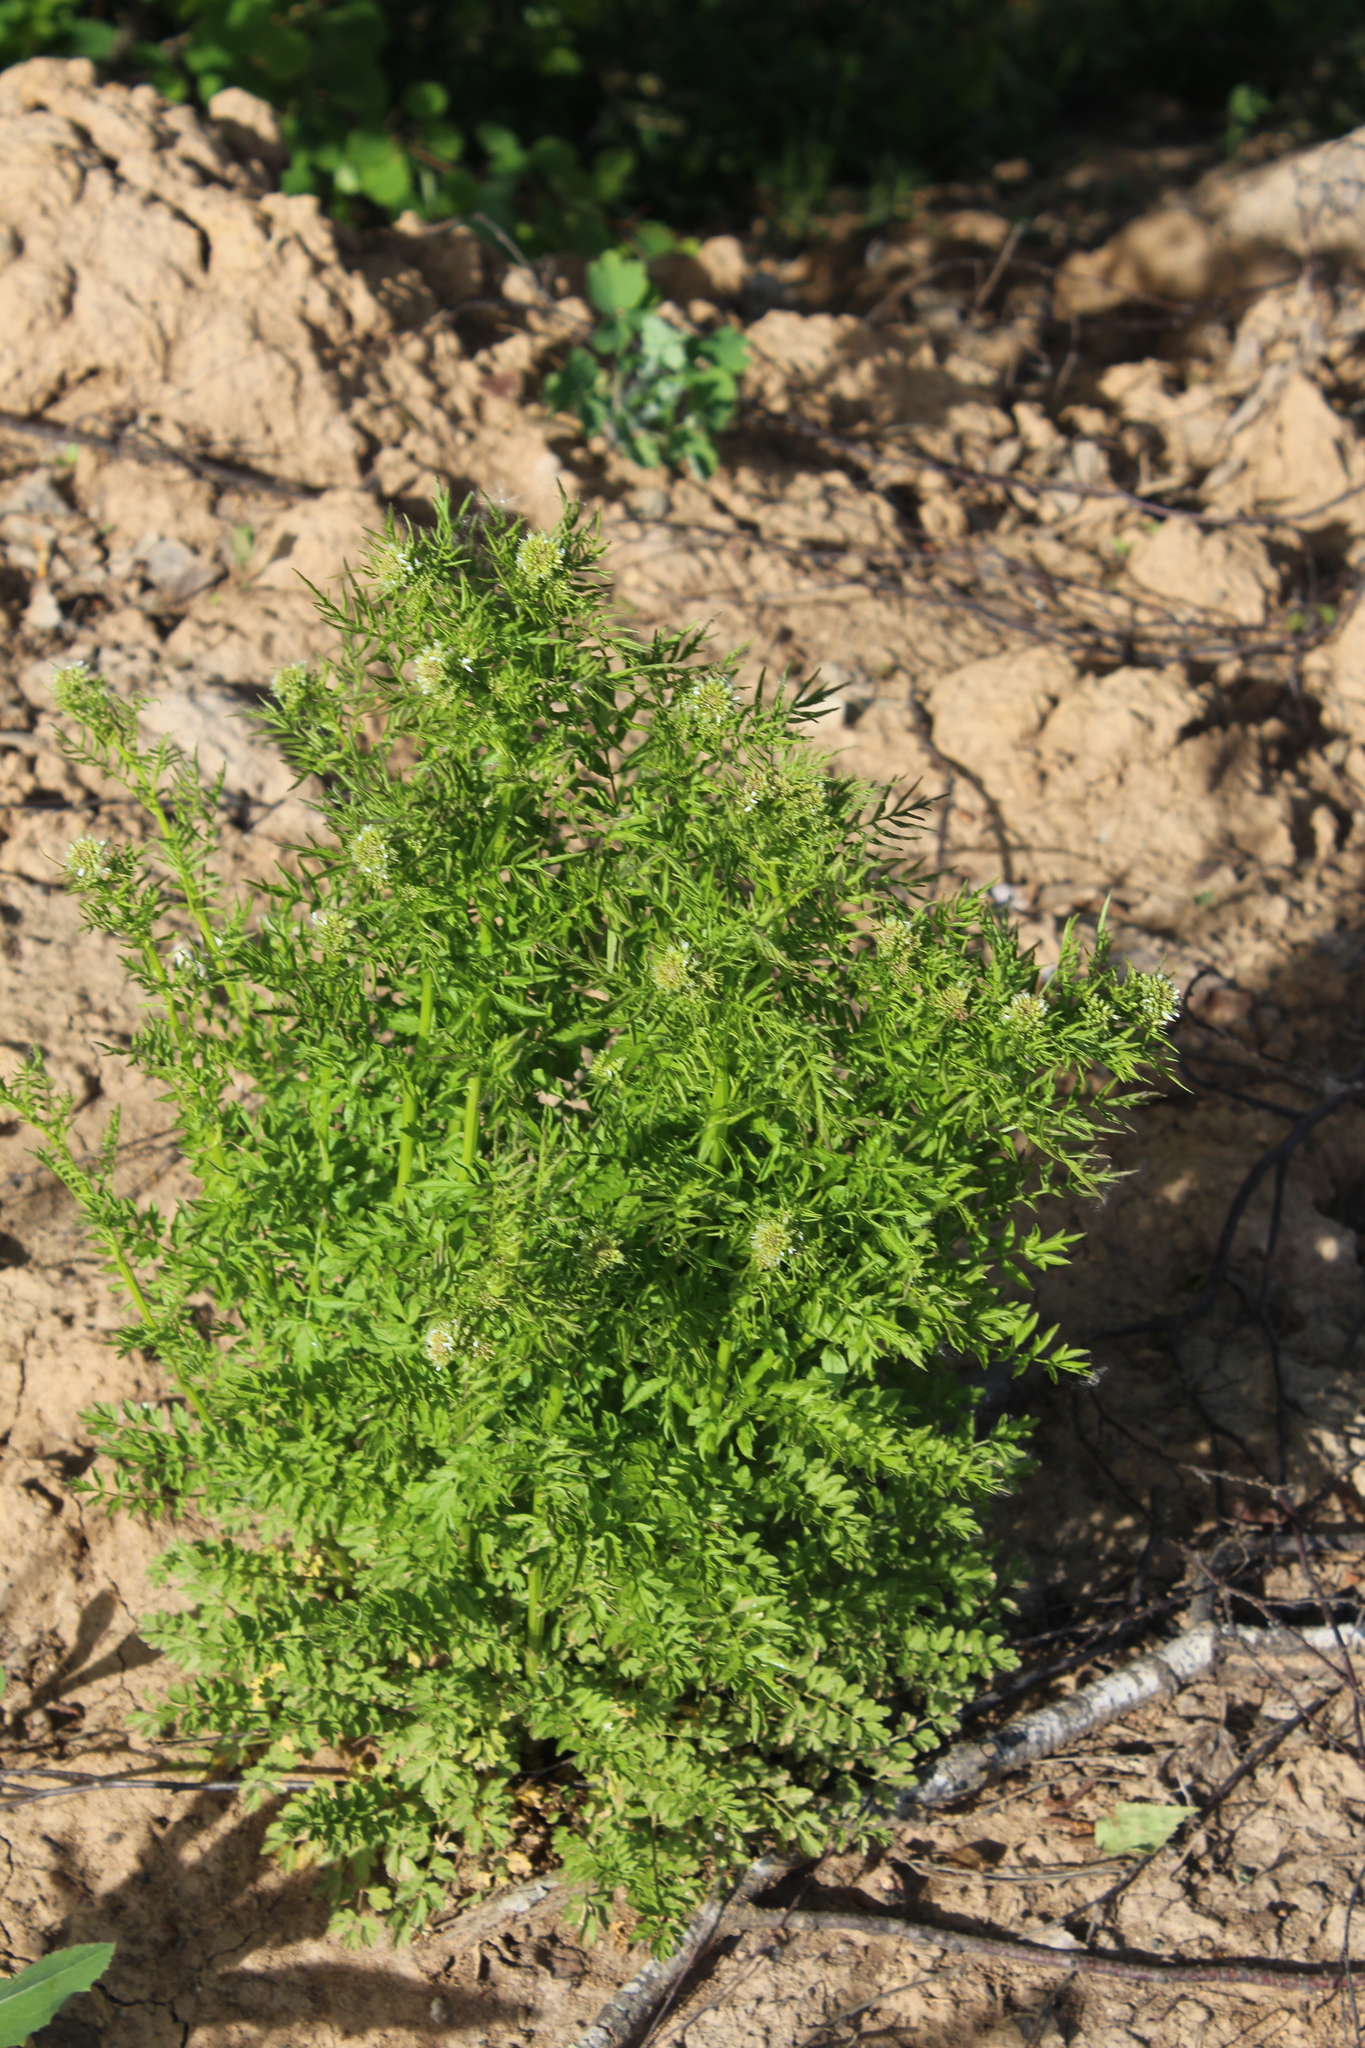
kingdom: Plantae
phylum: Tracheophyta
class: Magnoliopsida
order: Brassicales
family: Brassicaceae
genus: Cardamine
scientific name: Cardamine impatiens
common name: Narrow-leaved bitter-cress
